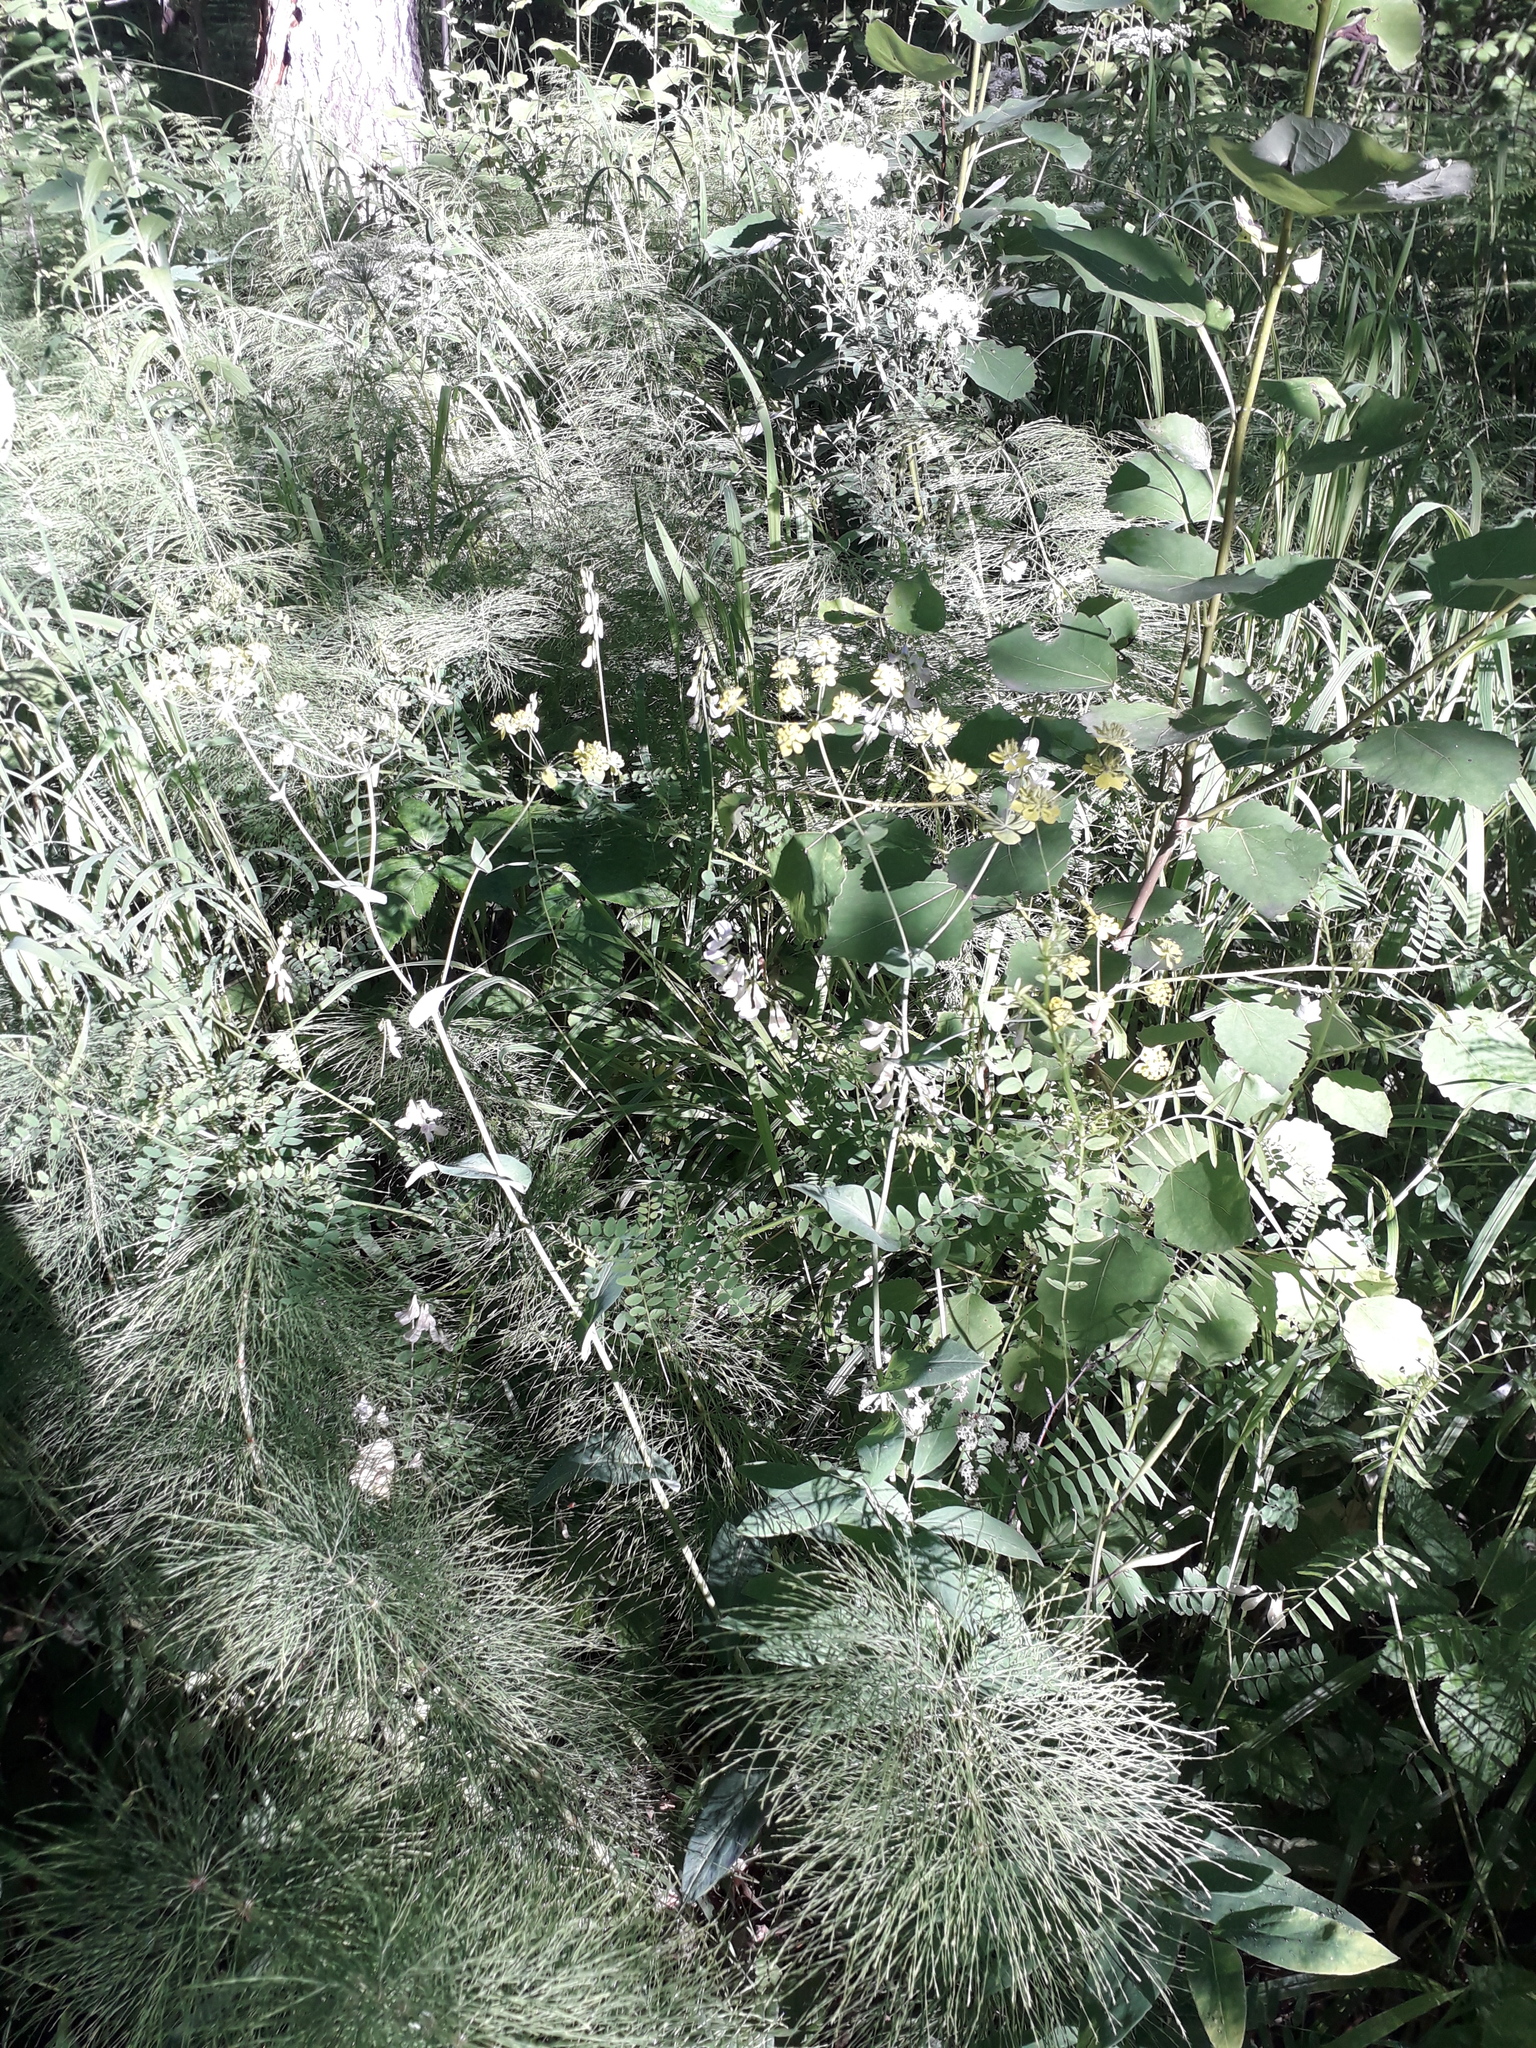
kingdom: Plantae
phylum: Tracheophyta
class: Magnoliopsida
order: Apiales
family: Apiaceae
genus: Bupleurum
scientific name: Bupleurum aureum
